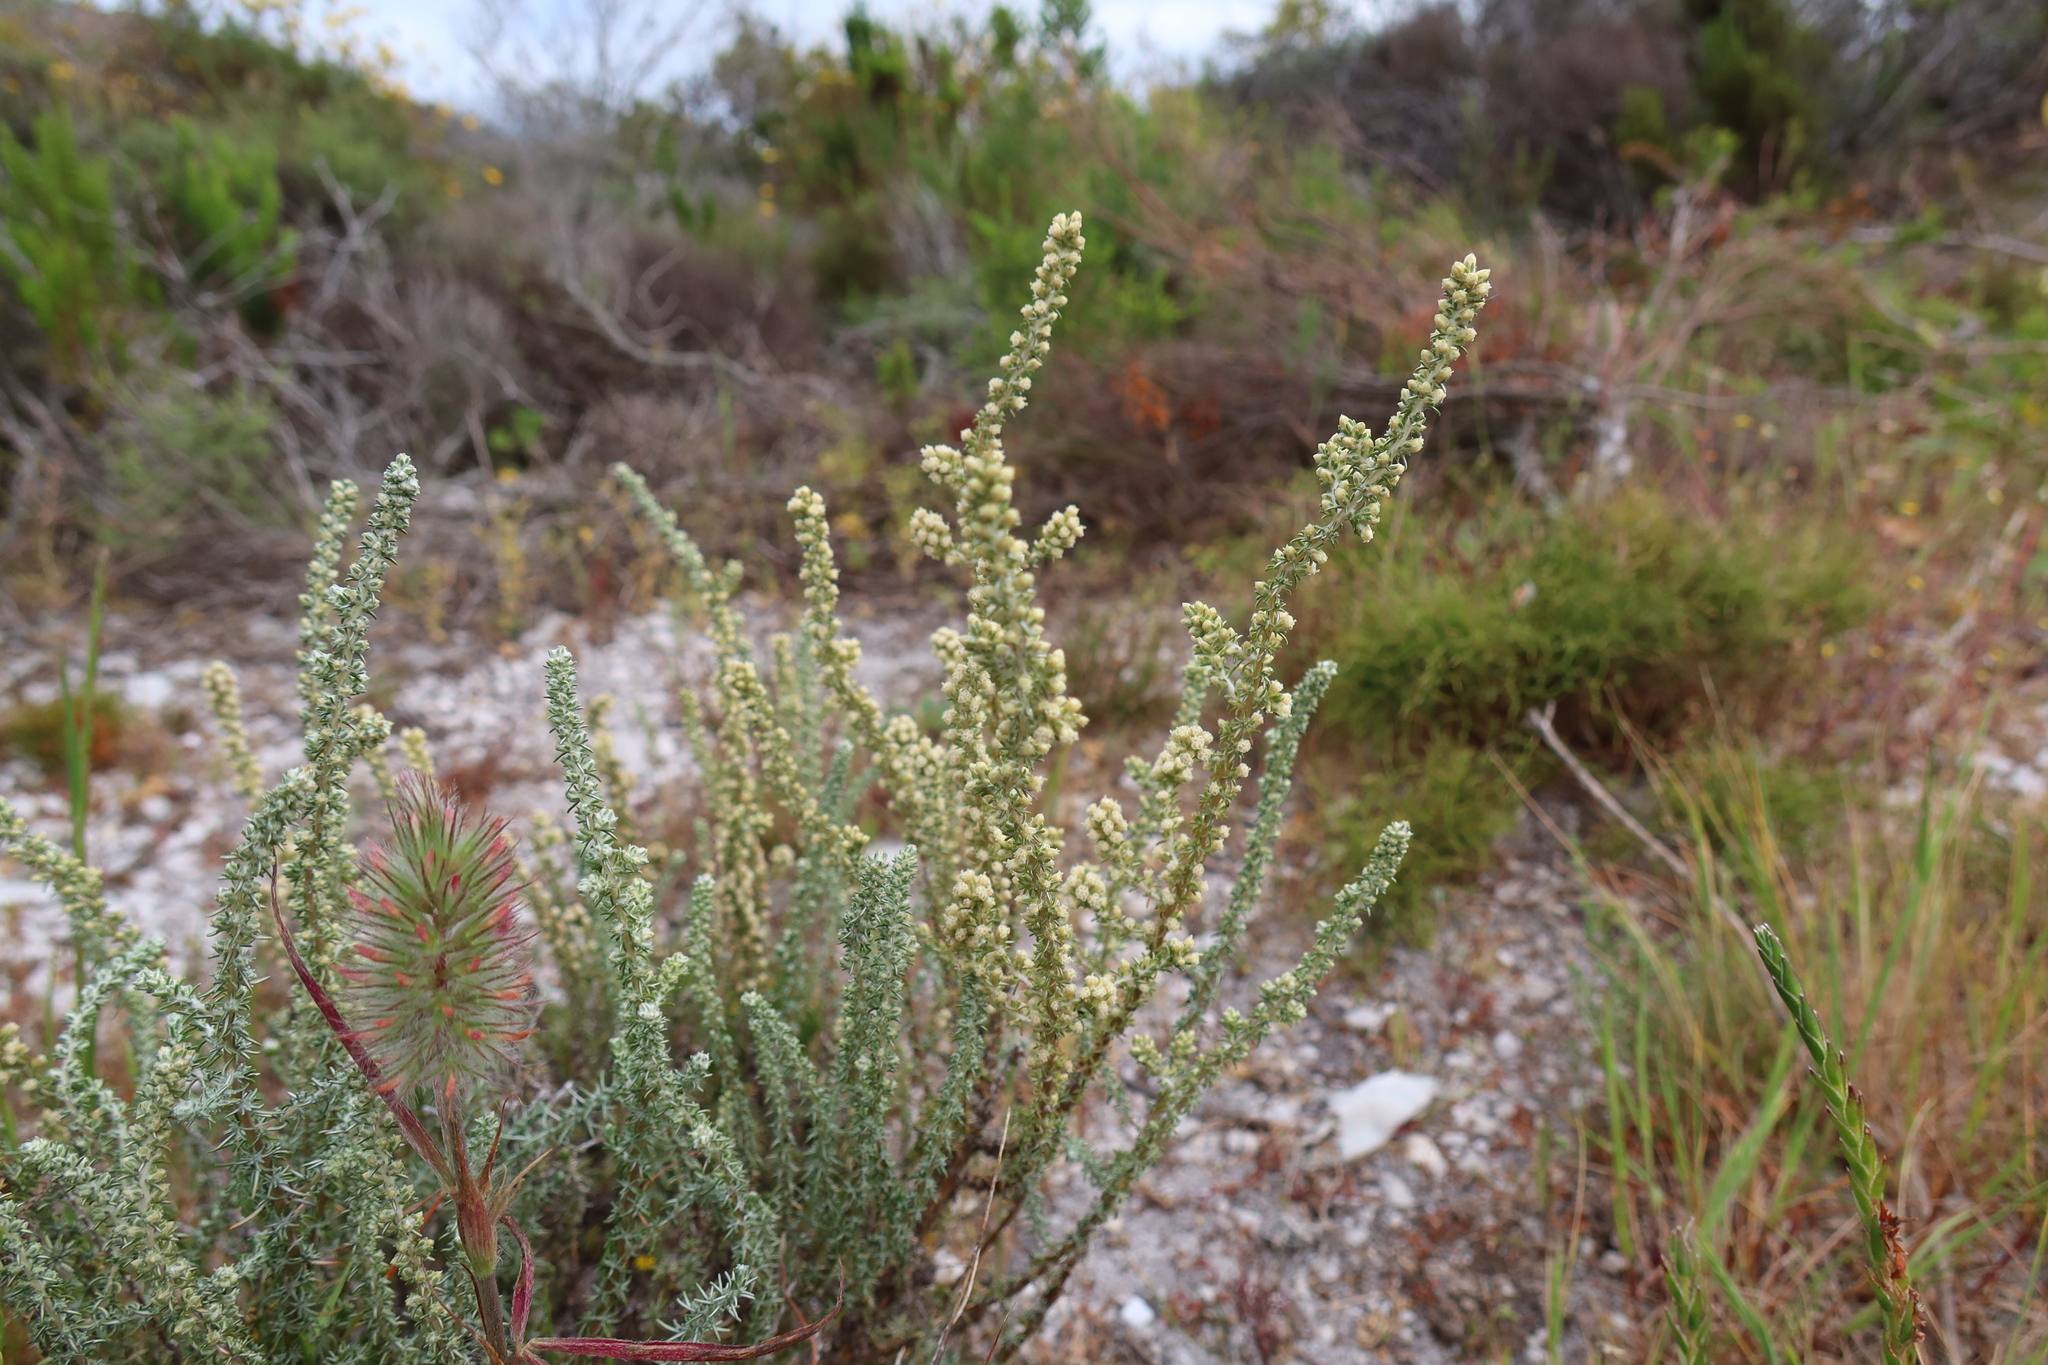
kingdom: Plantae
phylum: Tracheophyta
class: Magnoliopsida
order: Asterales
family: Asteraceae
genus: Ifloga
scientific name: Ifloga ambigua
